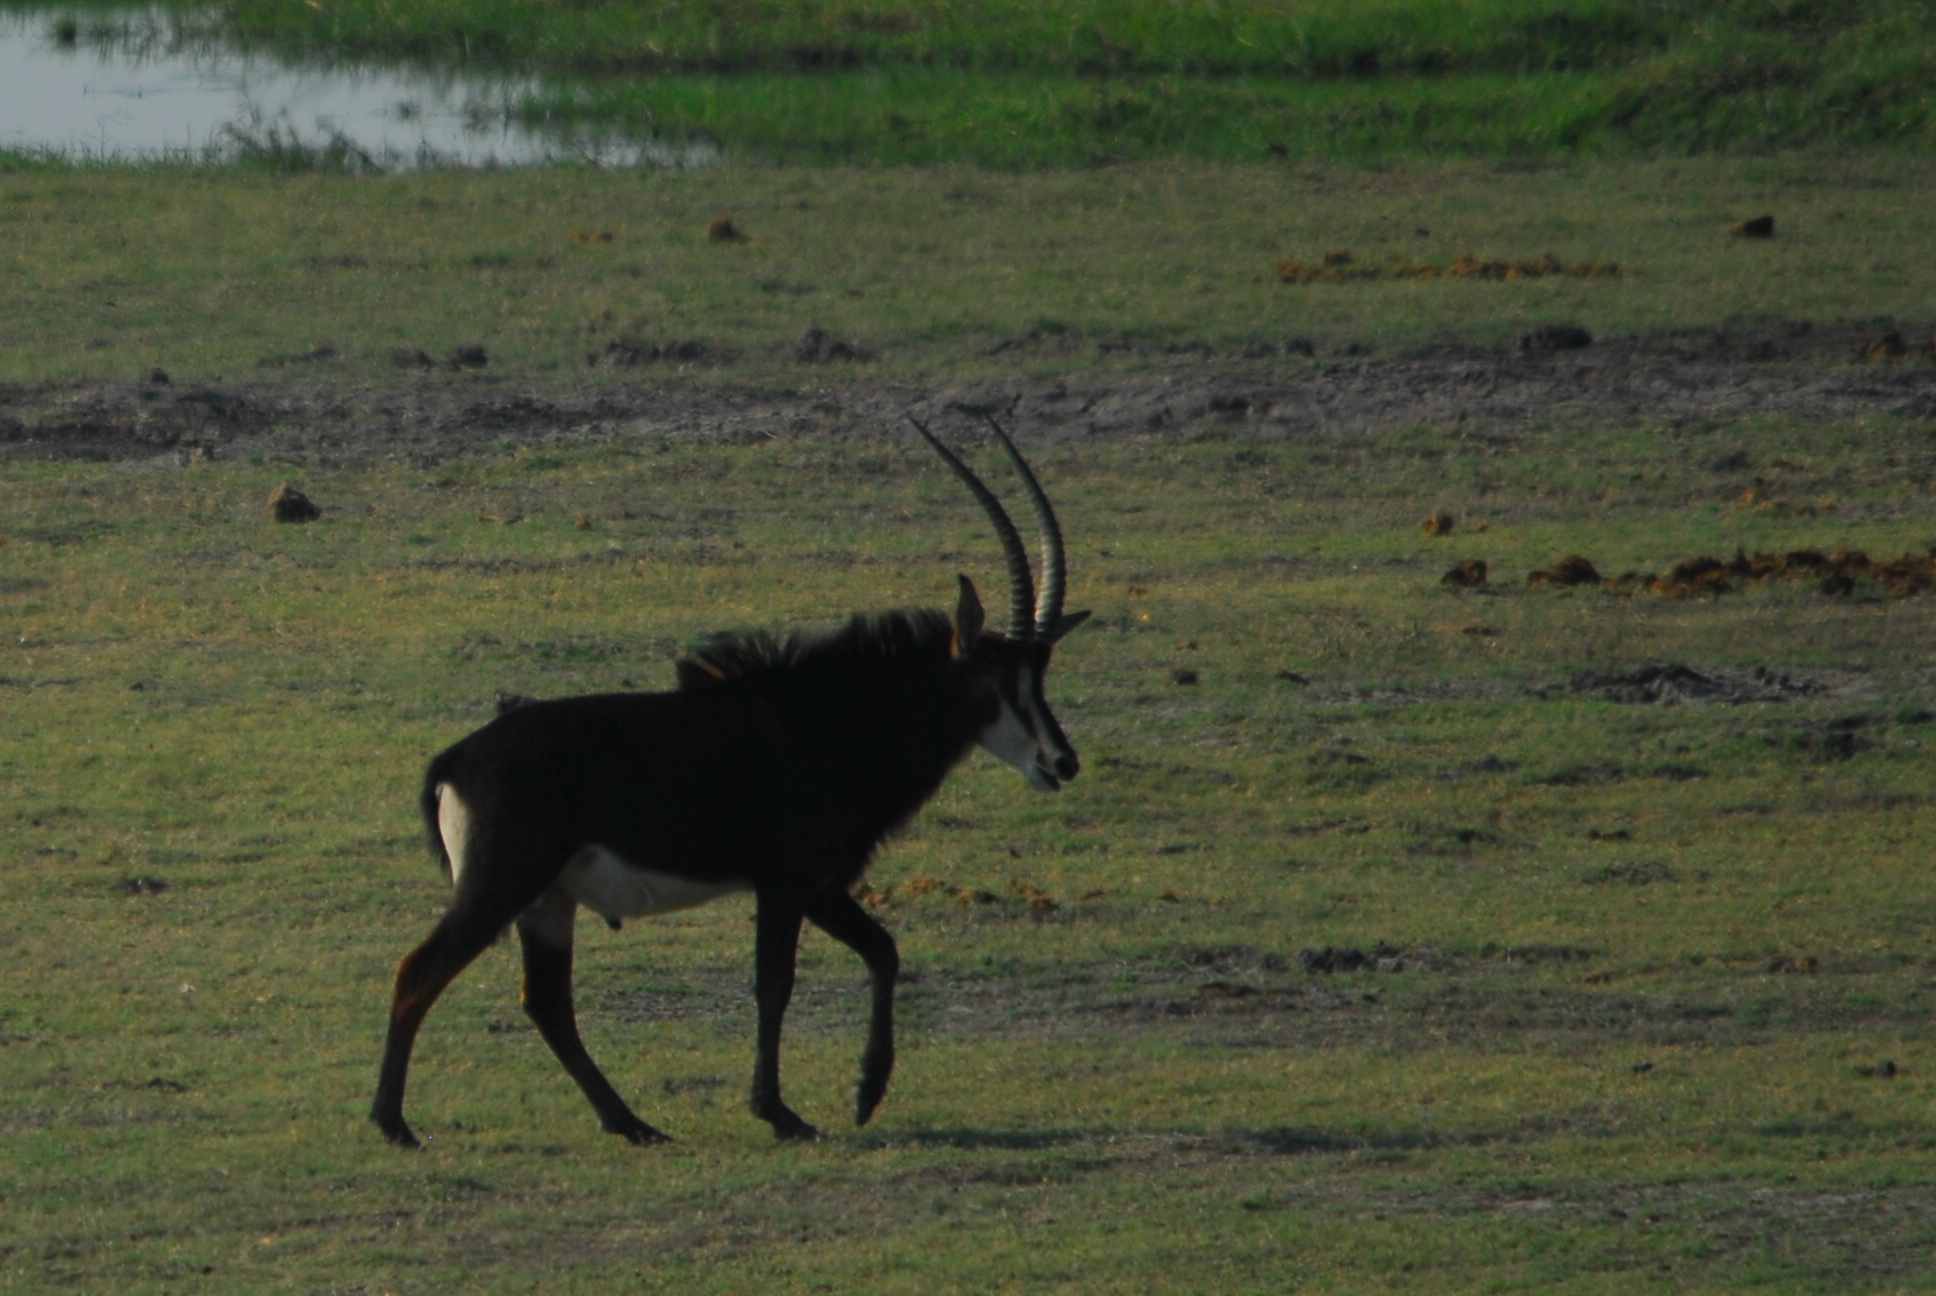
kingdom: Animalia
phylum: Chordata
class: Mammalia
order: Artiodactyla
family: Bovidae
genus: Hippotragus
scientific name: Hippotragus niger
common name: Sable antelope
